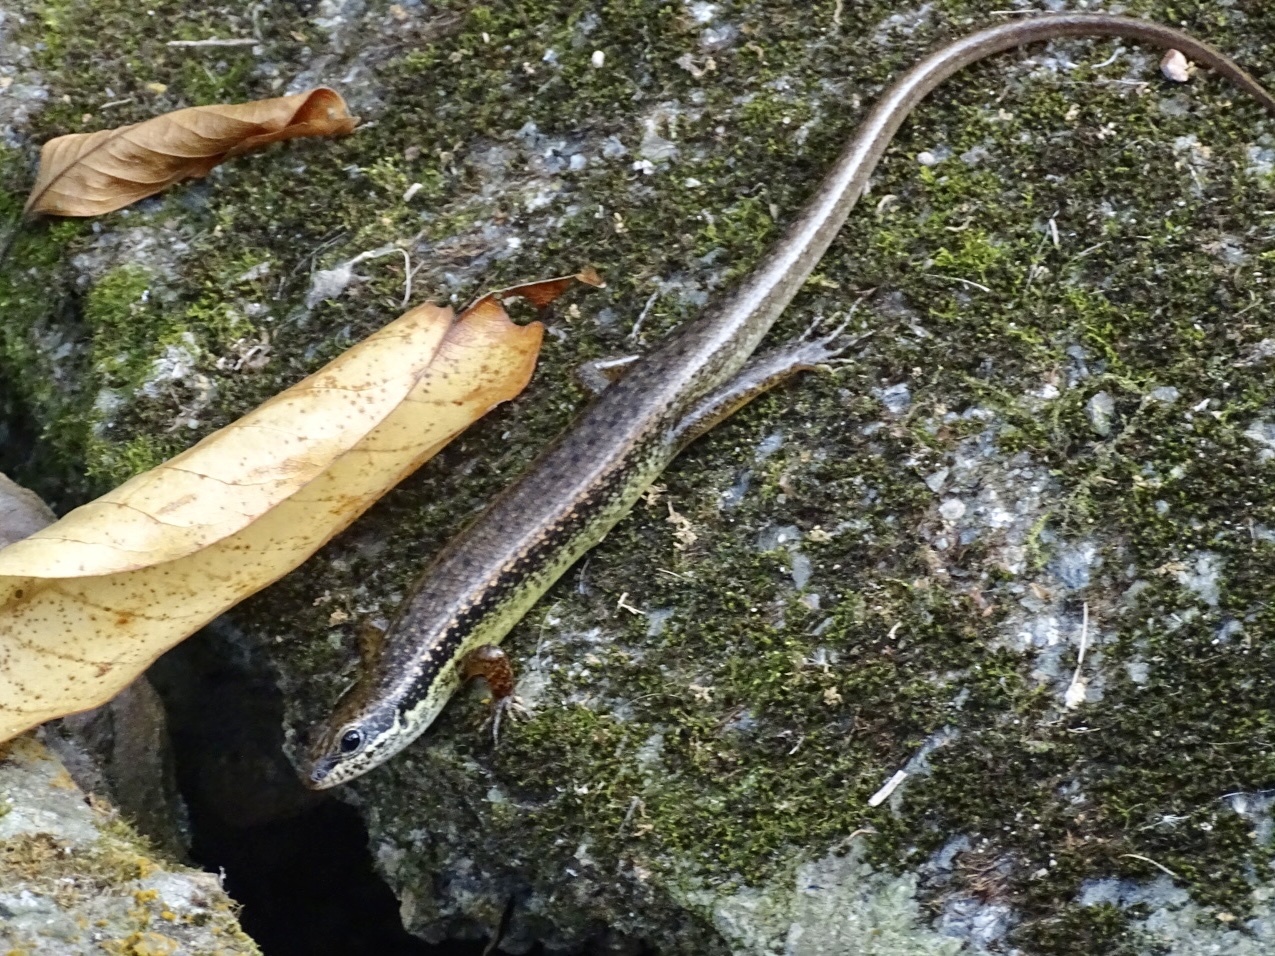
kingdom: Animalia
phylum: Chordata
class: Squamata
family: Scincidae
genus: Sphenomorphus
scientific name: Sphenomorphus incognitus
